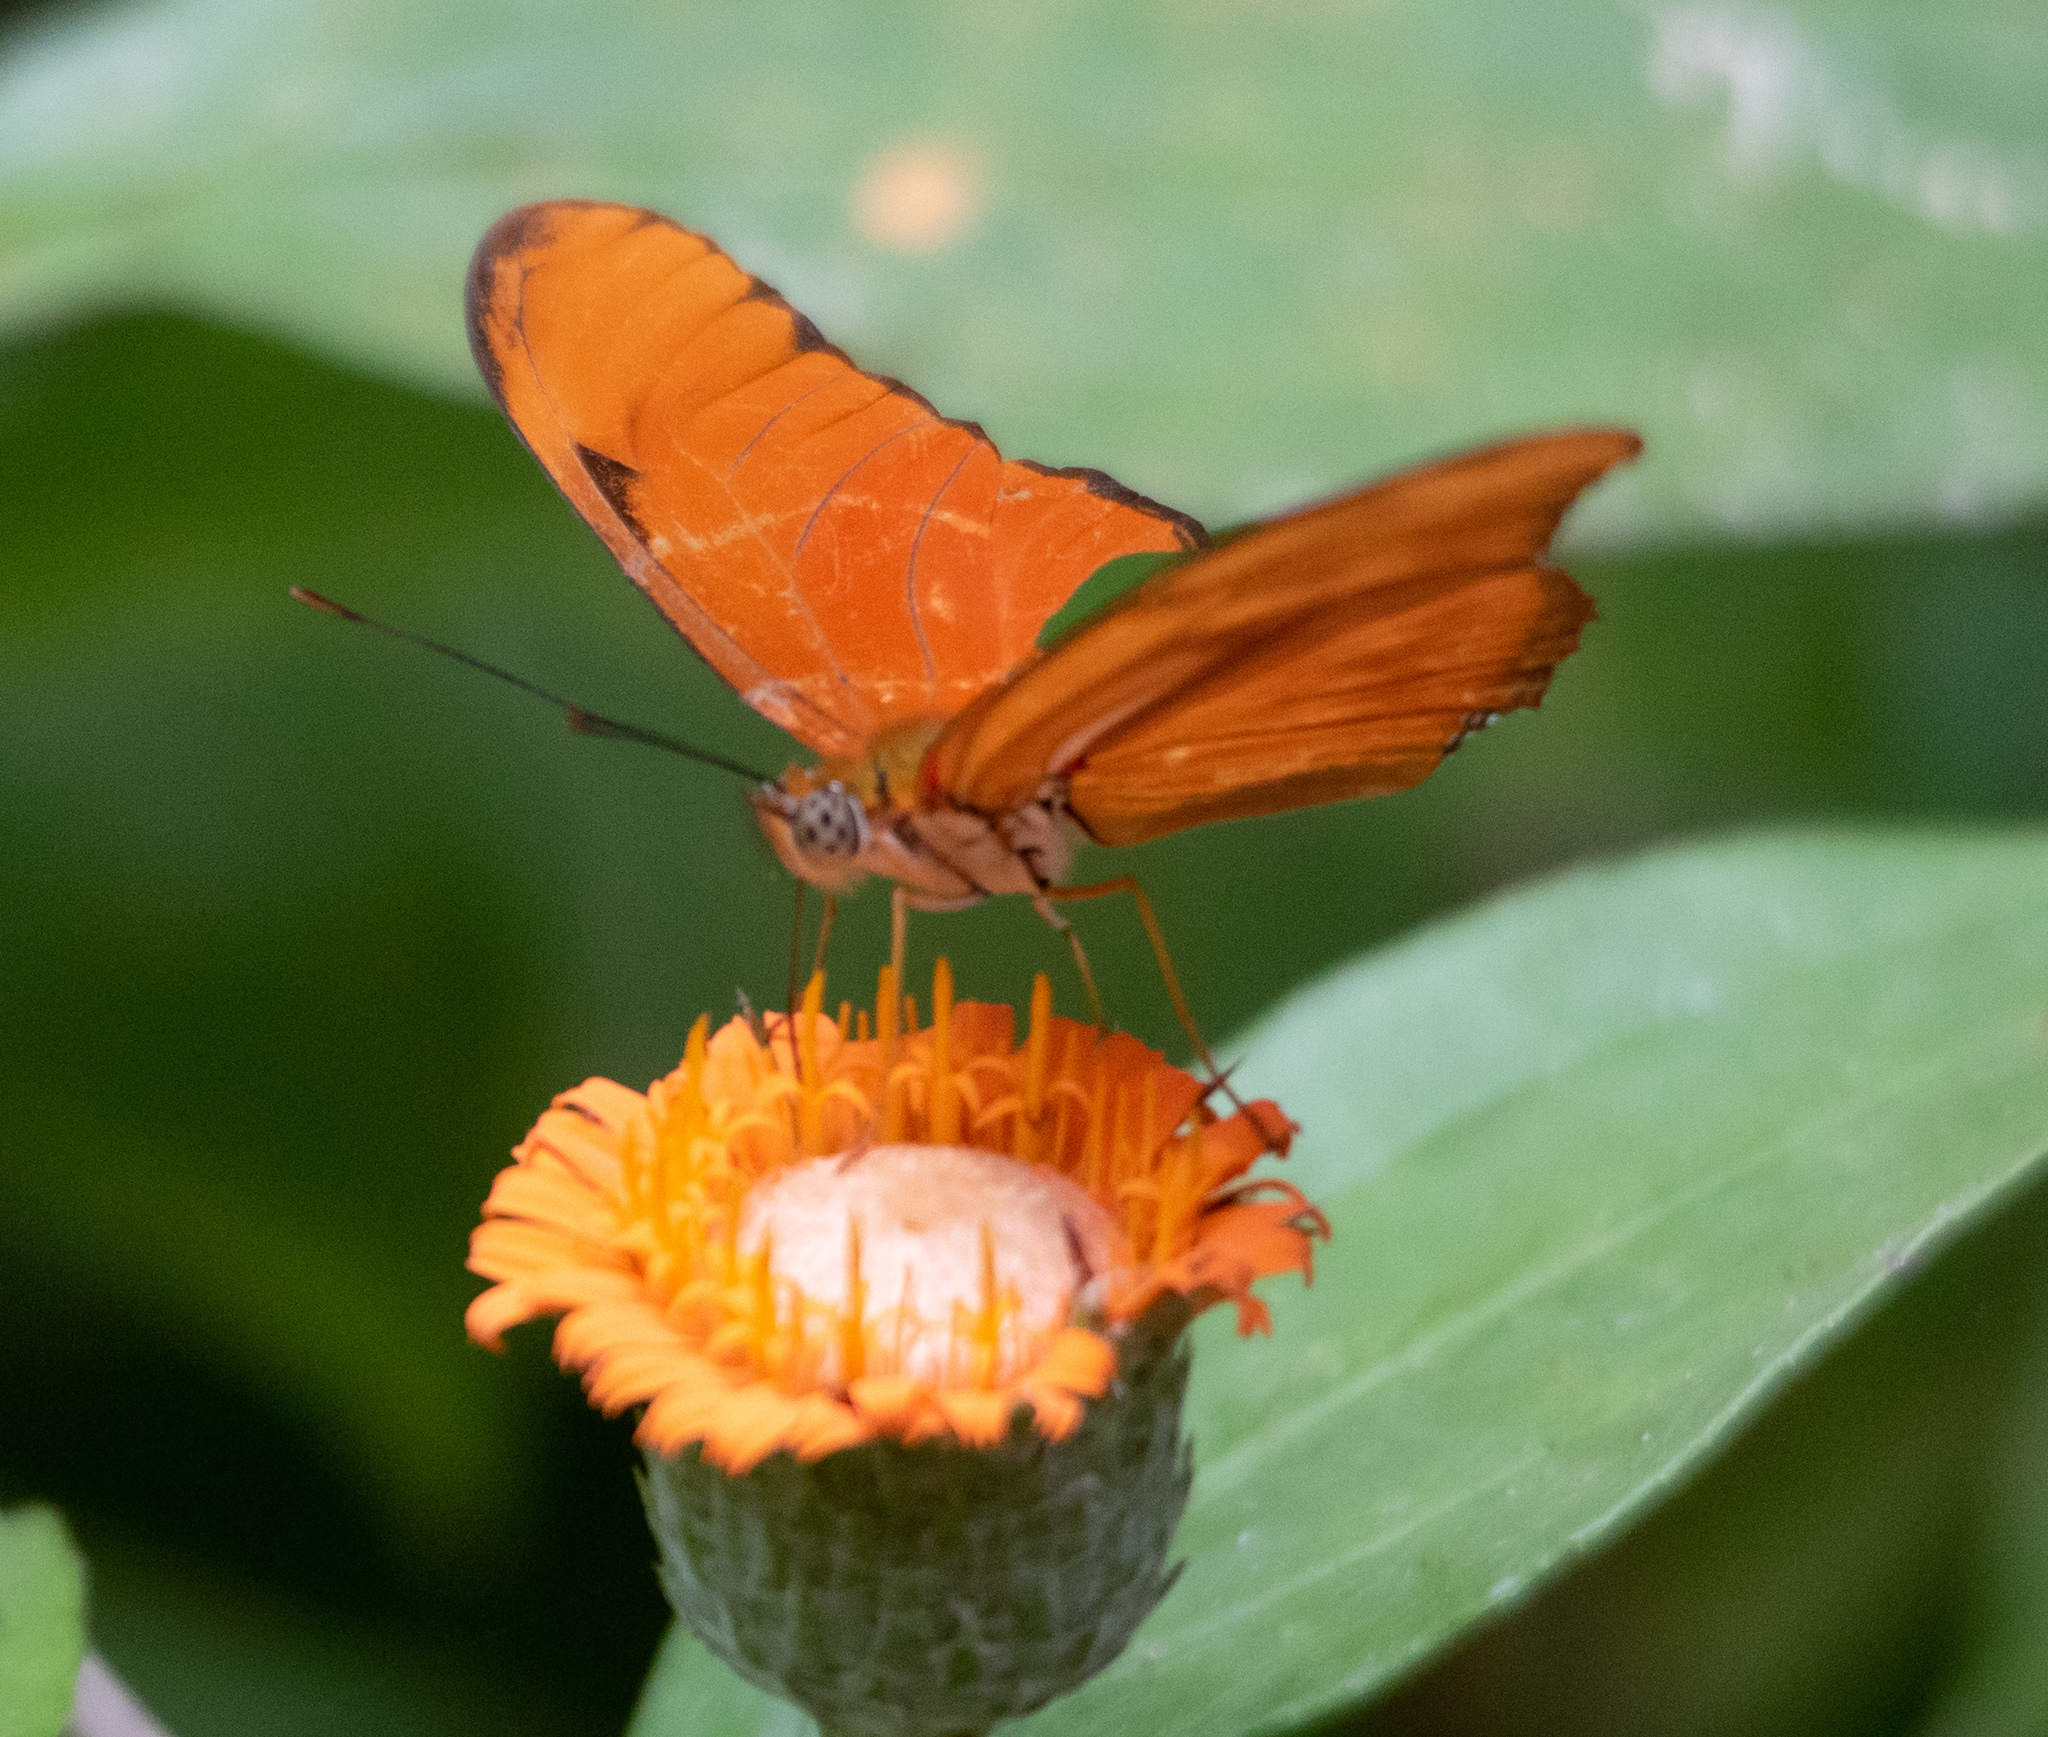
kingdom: Animalia
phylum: Arthropoda
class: Insecta
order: Lepidoptera
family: Nymphalidae
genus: Dryas
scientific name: Dryas iulia
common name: Flambeau
